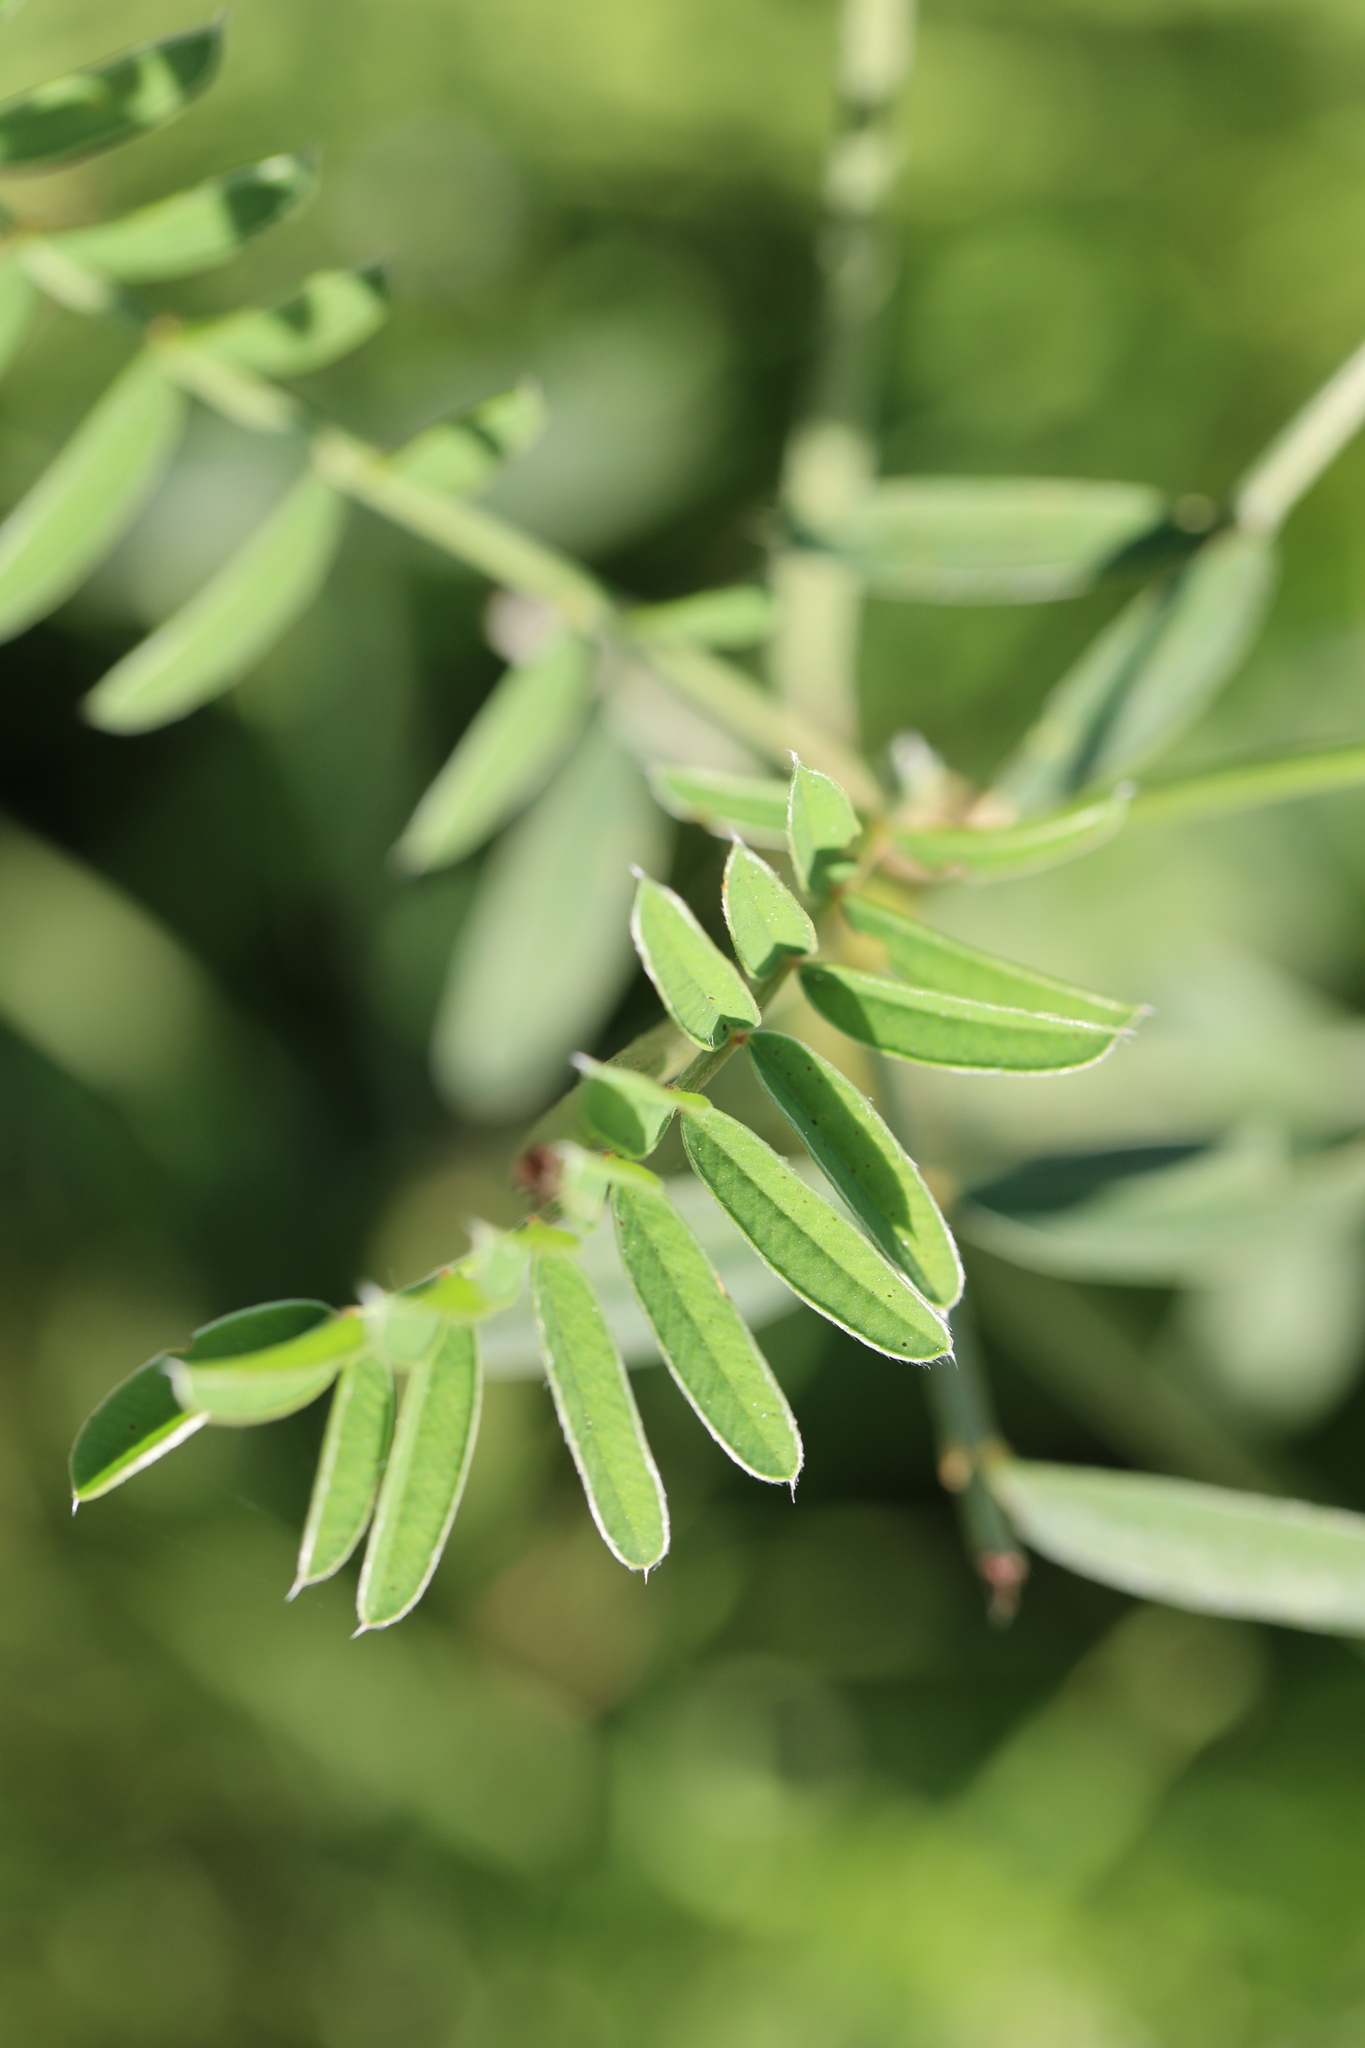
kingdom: Plantae
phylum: Tracheophyta
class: Magnoliopsida
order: Fabales
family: Fabaceae
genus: Onobrychis
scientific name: Onobrychis viciifolia
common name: Sainfoin
